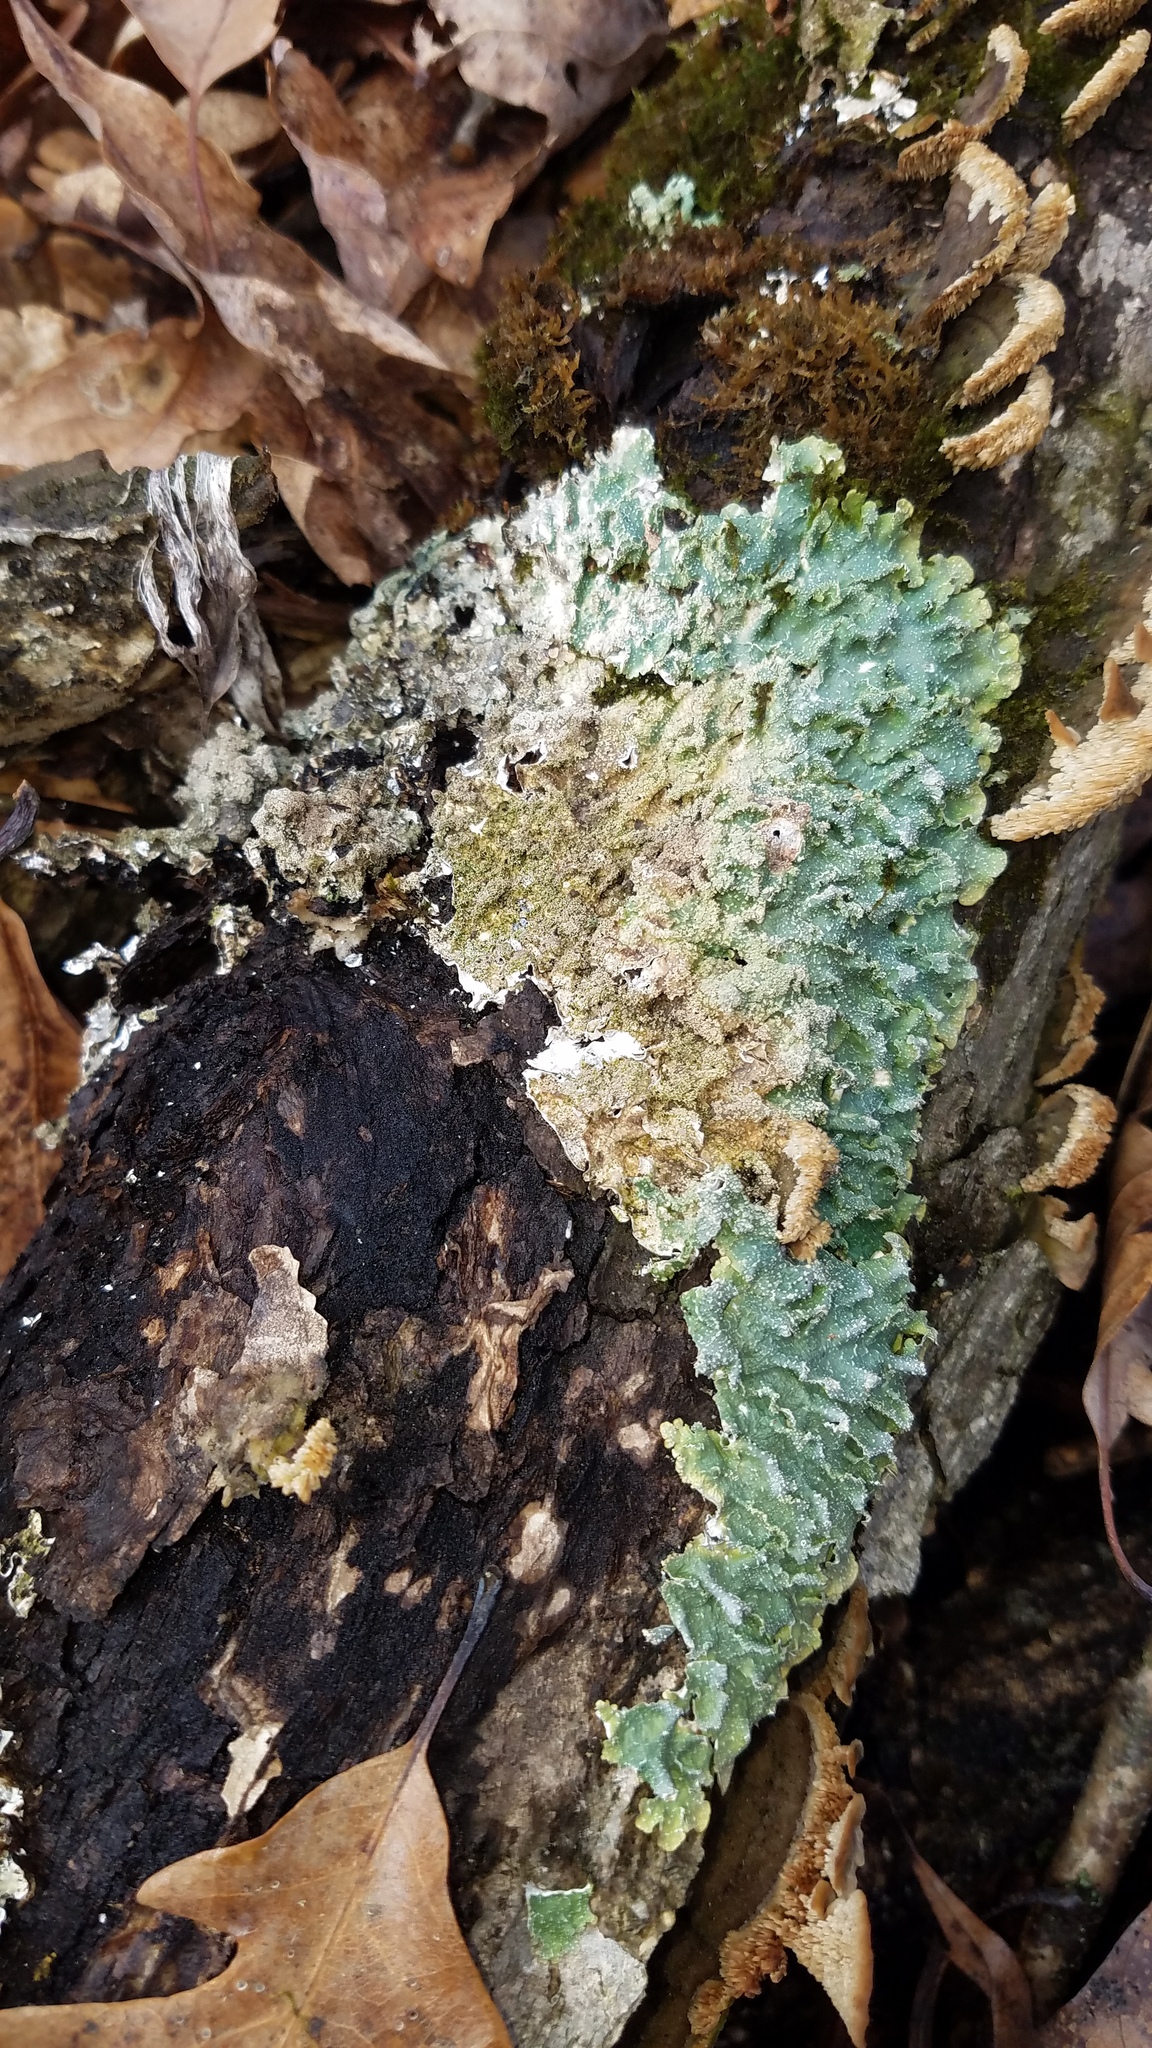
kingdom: Fungi
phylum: Ascomycota
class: Lecanoromycetes
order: Lecanorales
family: Parmeliaceae
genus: Punctelia
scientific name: Punctelia rudecta
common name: Rough speckled shield lichen
